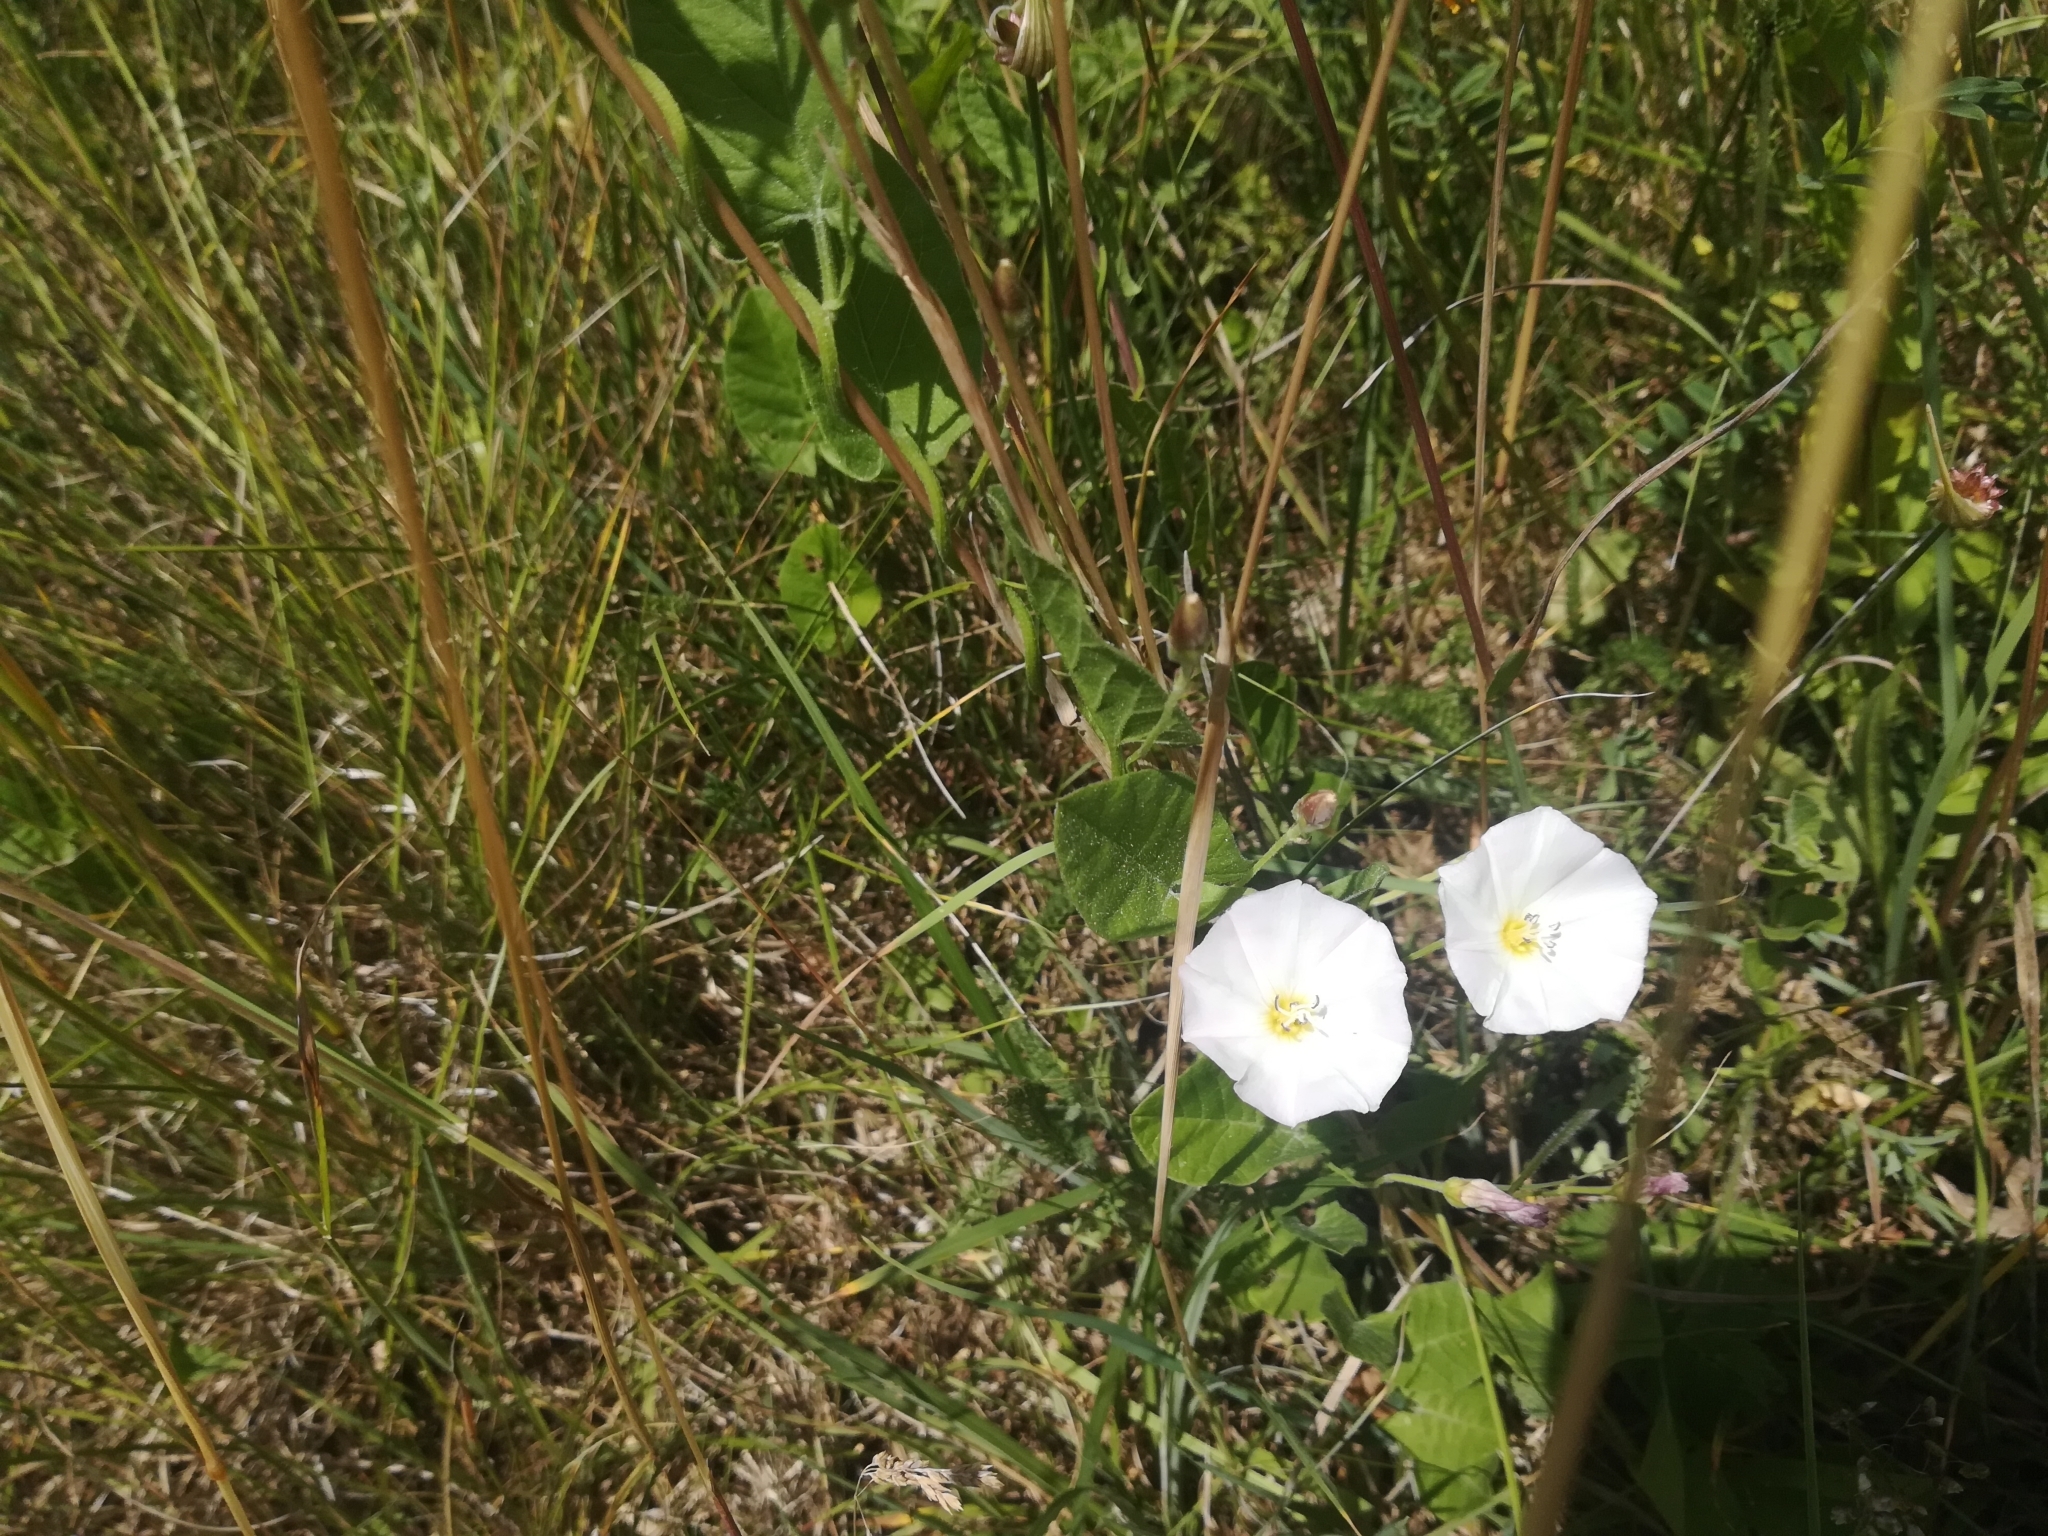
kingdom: Plantae
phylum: Tracheophyta
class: Magnoliopsida
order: Solanales
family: Convolvulaceae
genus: Convolvulus
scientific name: Convolvulus arvensis
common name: Field bindweed
